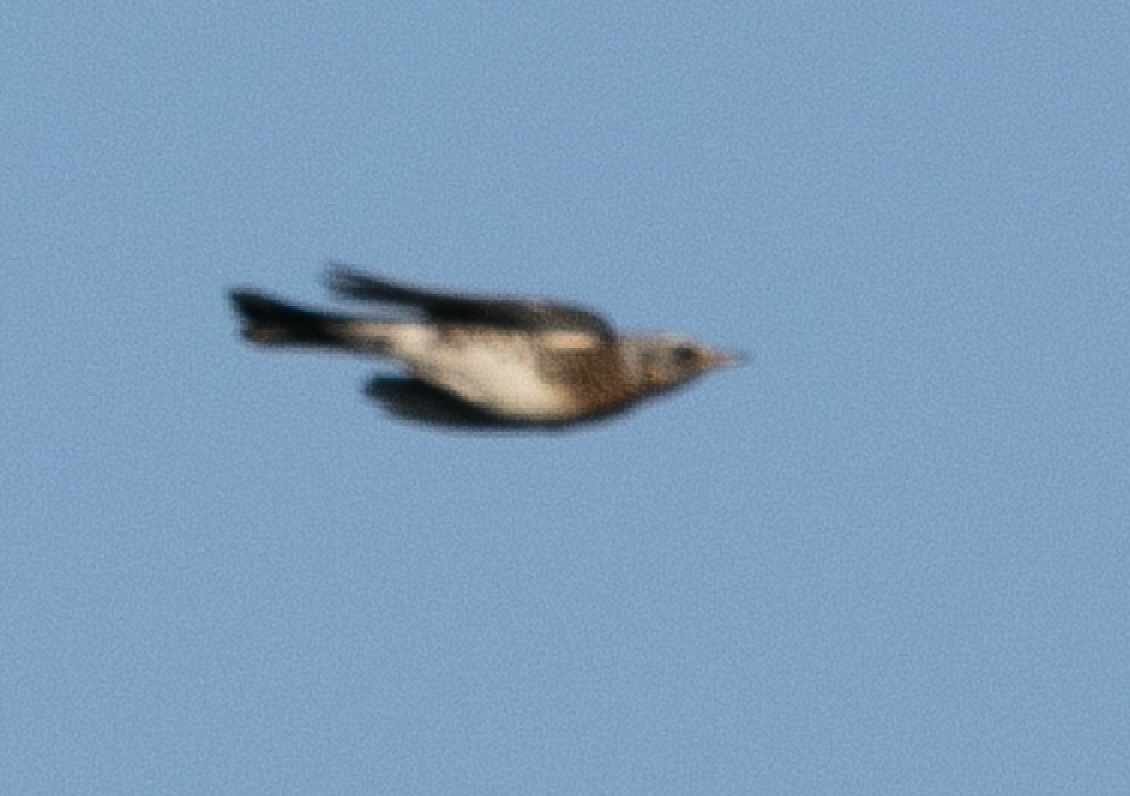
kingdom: Animalia
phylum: Chordata
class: Aves
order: Passeriformes
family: Turdidae
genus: Turdus
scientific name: Turdus pilaris
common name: Fieldfare
